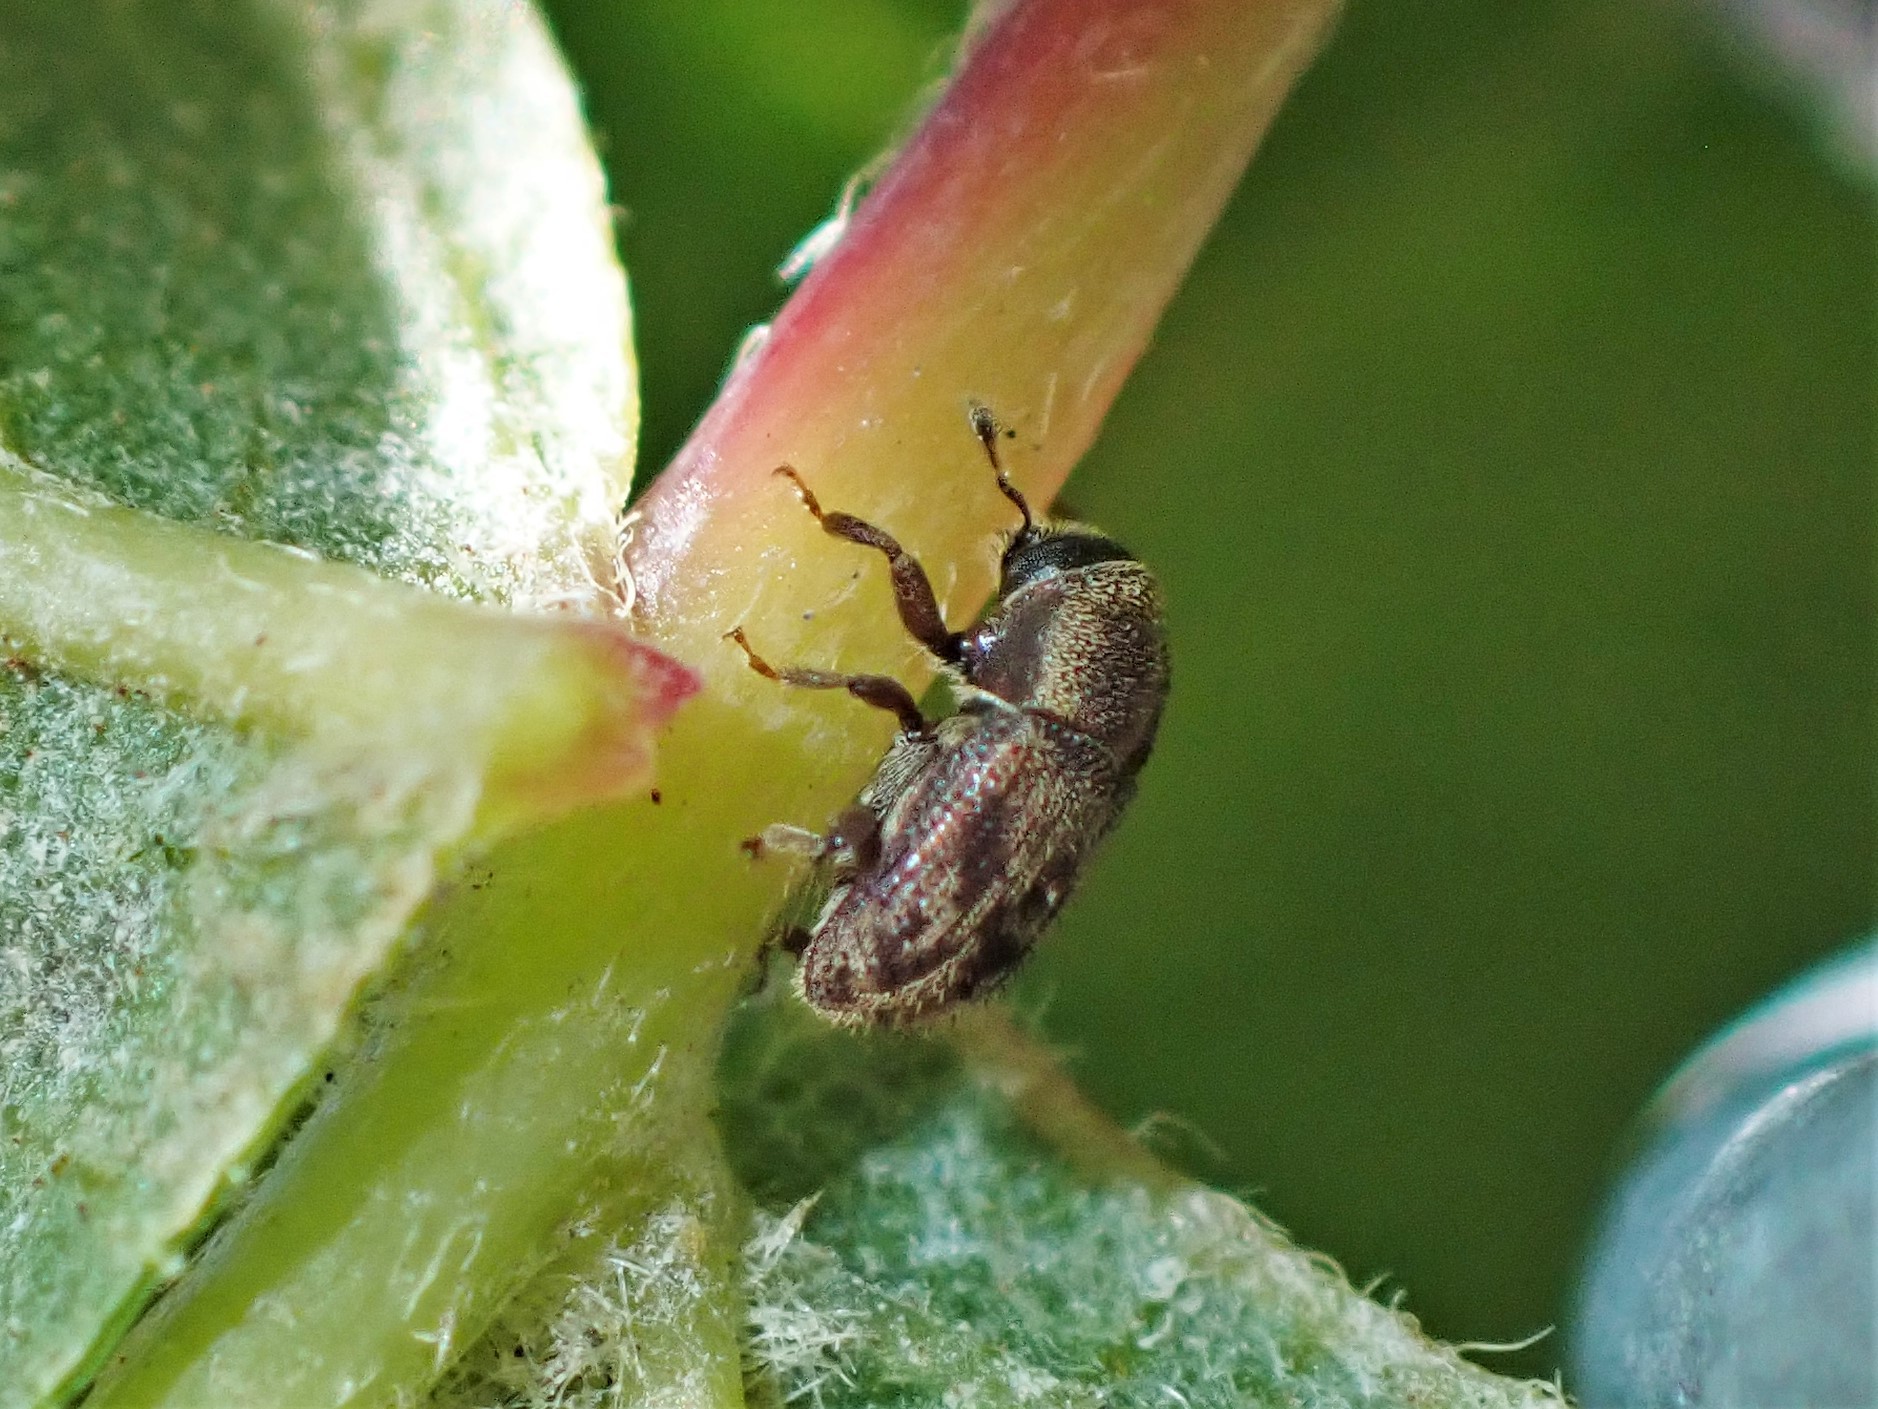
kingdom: Animalia
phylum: Arthropoda
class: Insecta
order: Coleoptera
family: Curculionidae
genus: Chaetoptelius
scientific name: Chaetoptelius mundulus
